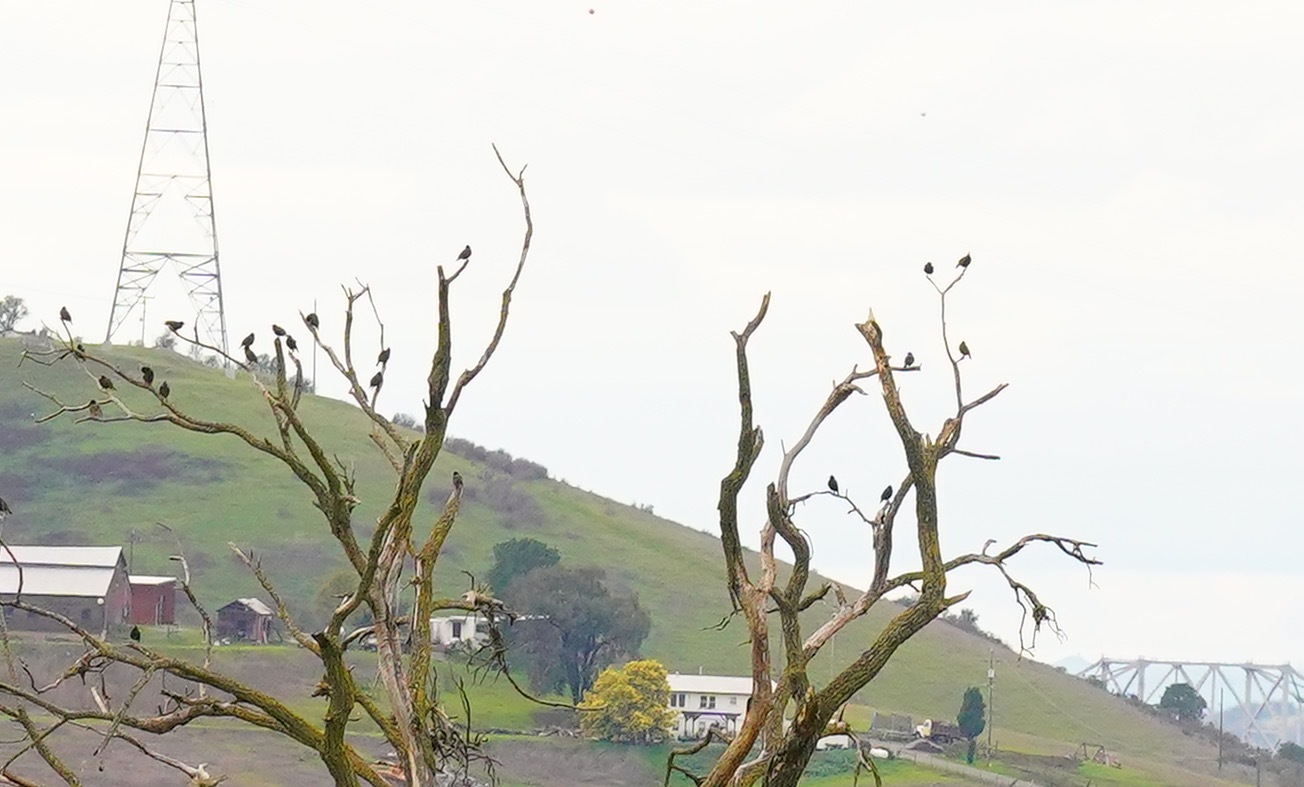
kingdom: Animalia
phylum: Chordata
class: Aves
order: Passeriformes
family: Sturnidae
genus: Sturnus
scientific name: Sturnus vulgaris
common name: Common starling
